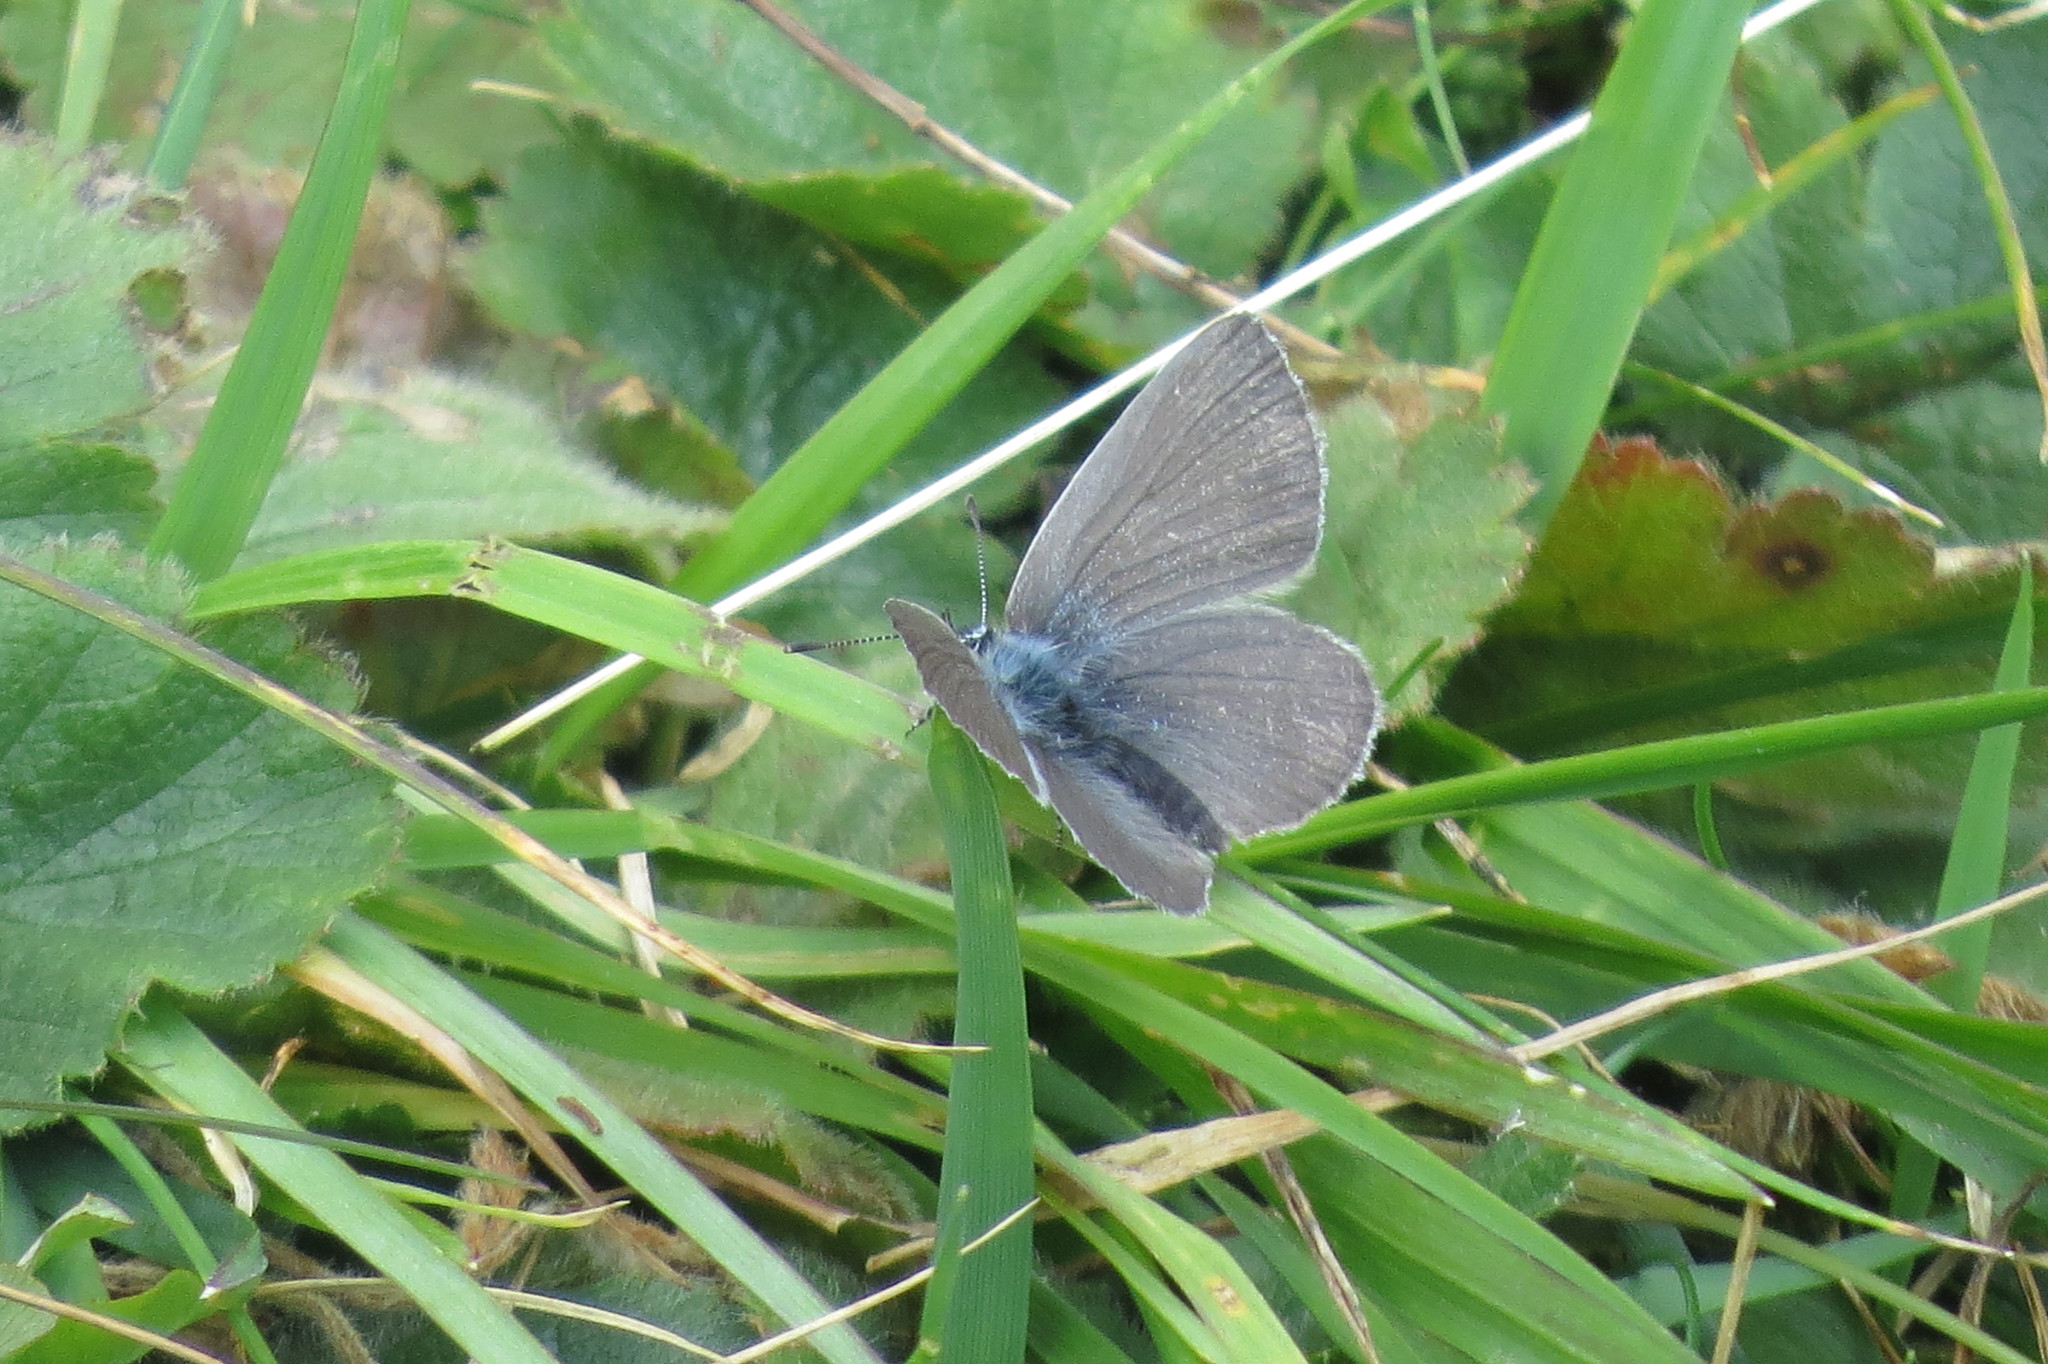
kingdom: Animalia
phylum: Arthropoda
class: Insecta
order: Lepidoptera
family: Lycaenidae
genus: Cupido
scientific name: Cupido minimus
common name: Small blue
